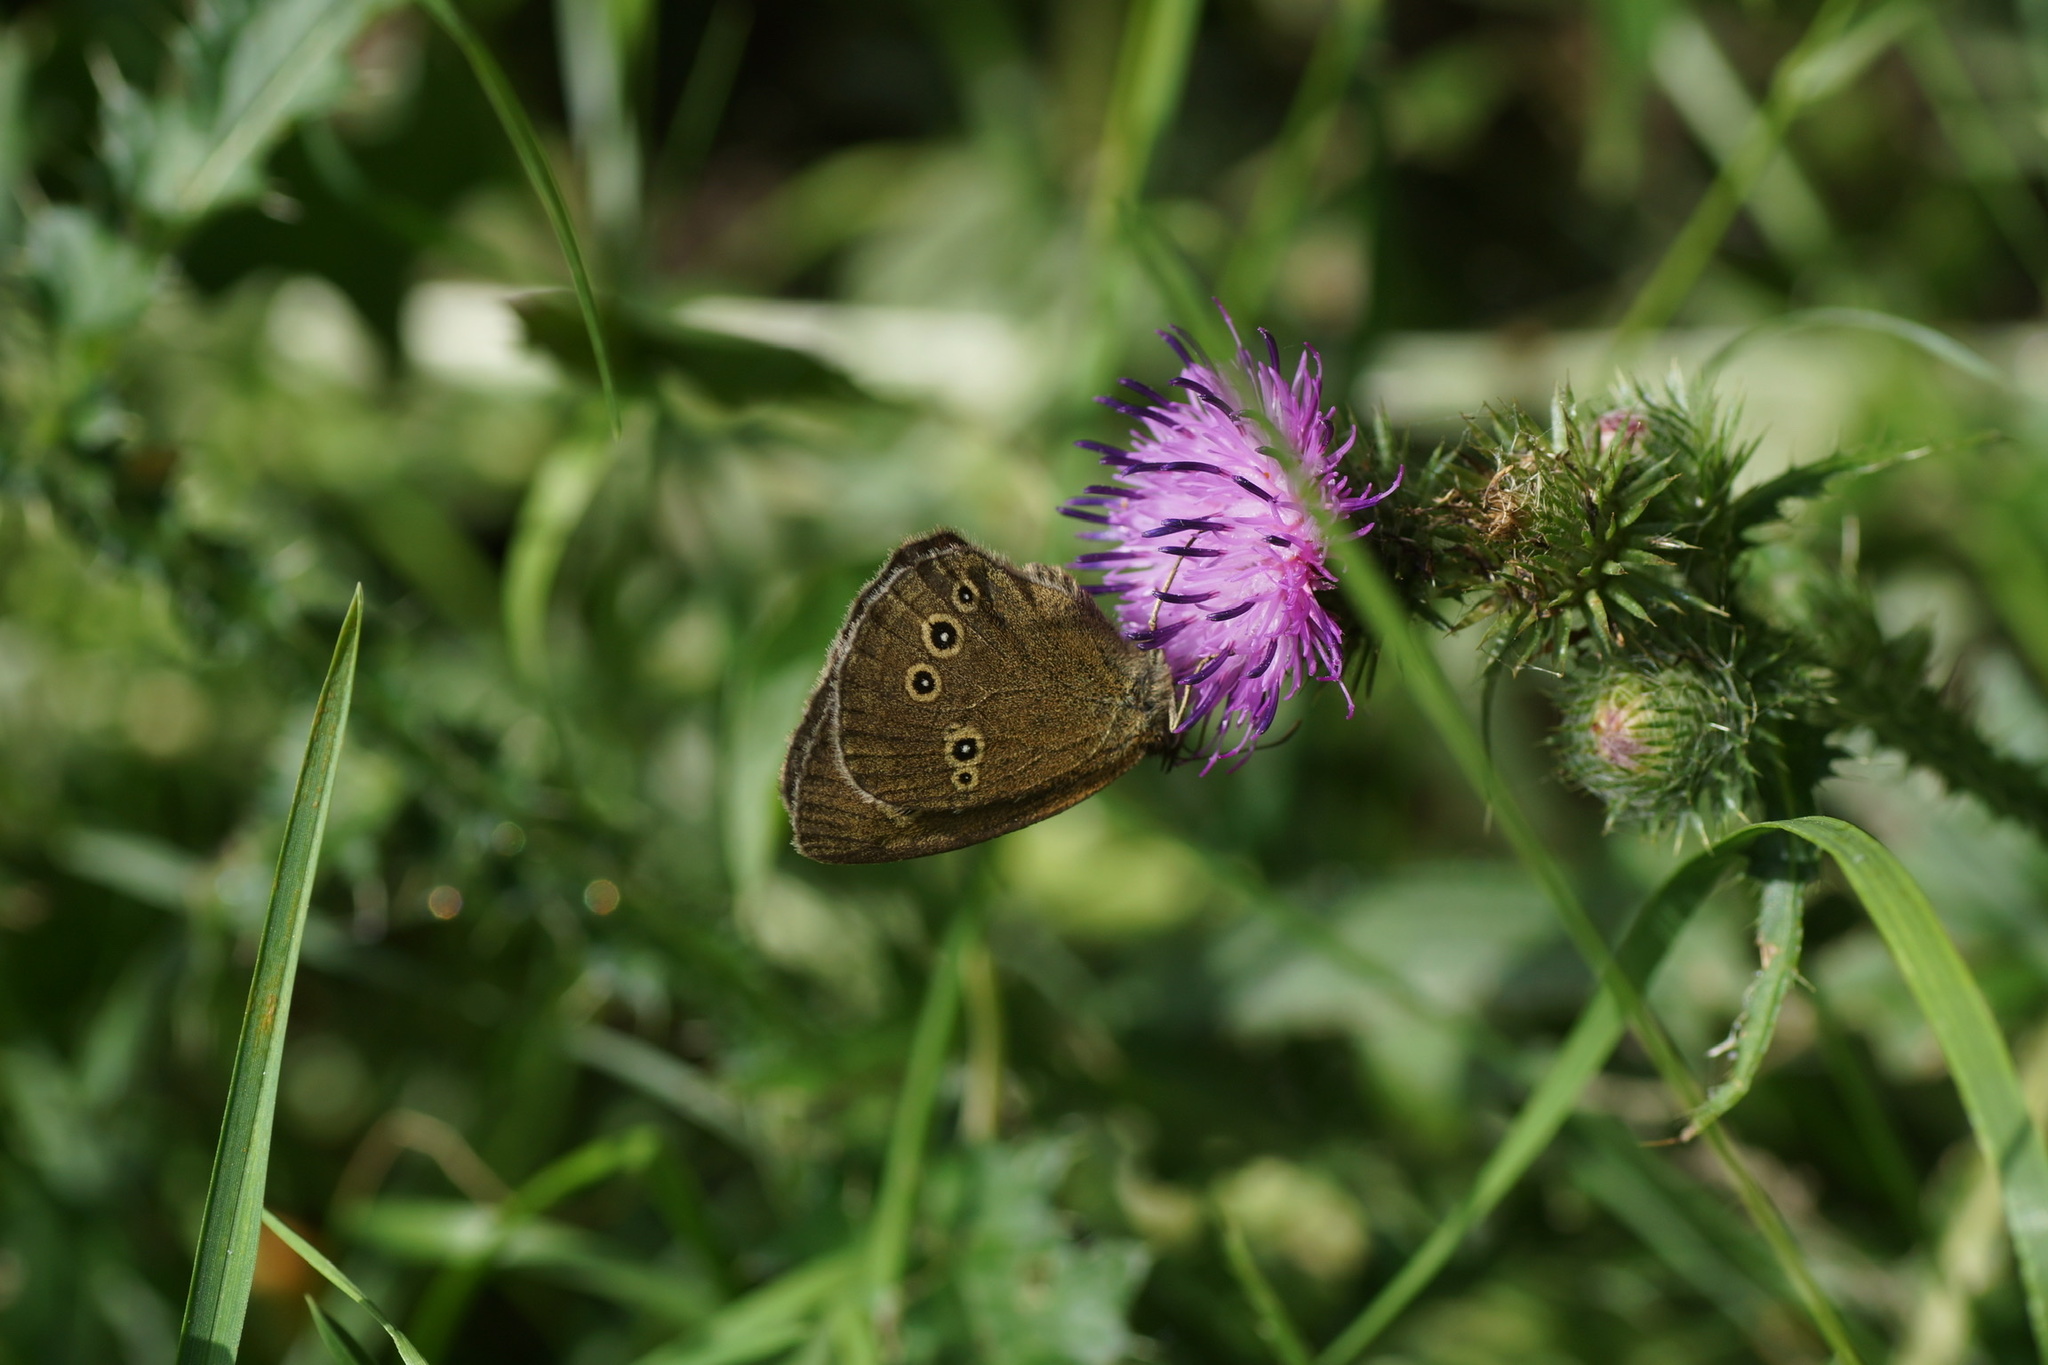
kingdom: Animalia
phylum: Arthropoda
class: Insecta
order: Lepidoptera
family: Nymphalidae
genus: Aphantopus
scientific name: Aphantopus hyperantus
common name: Ringlet
